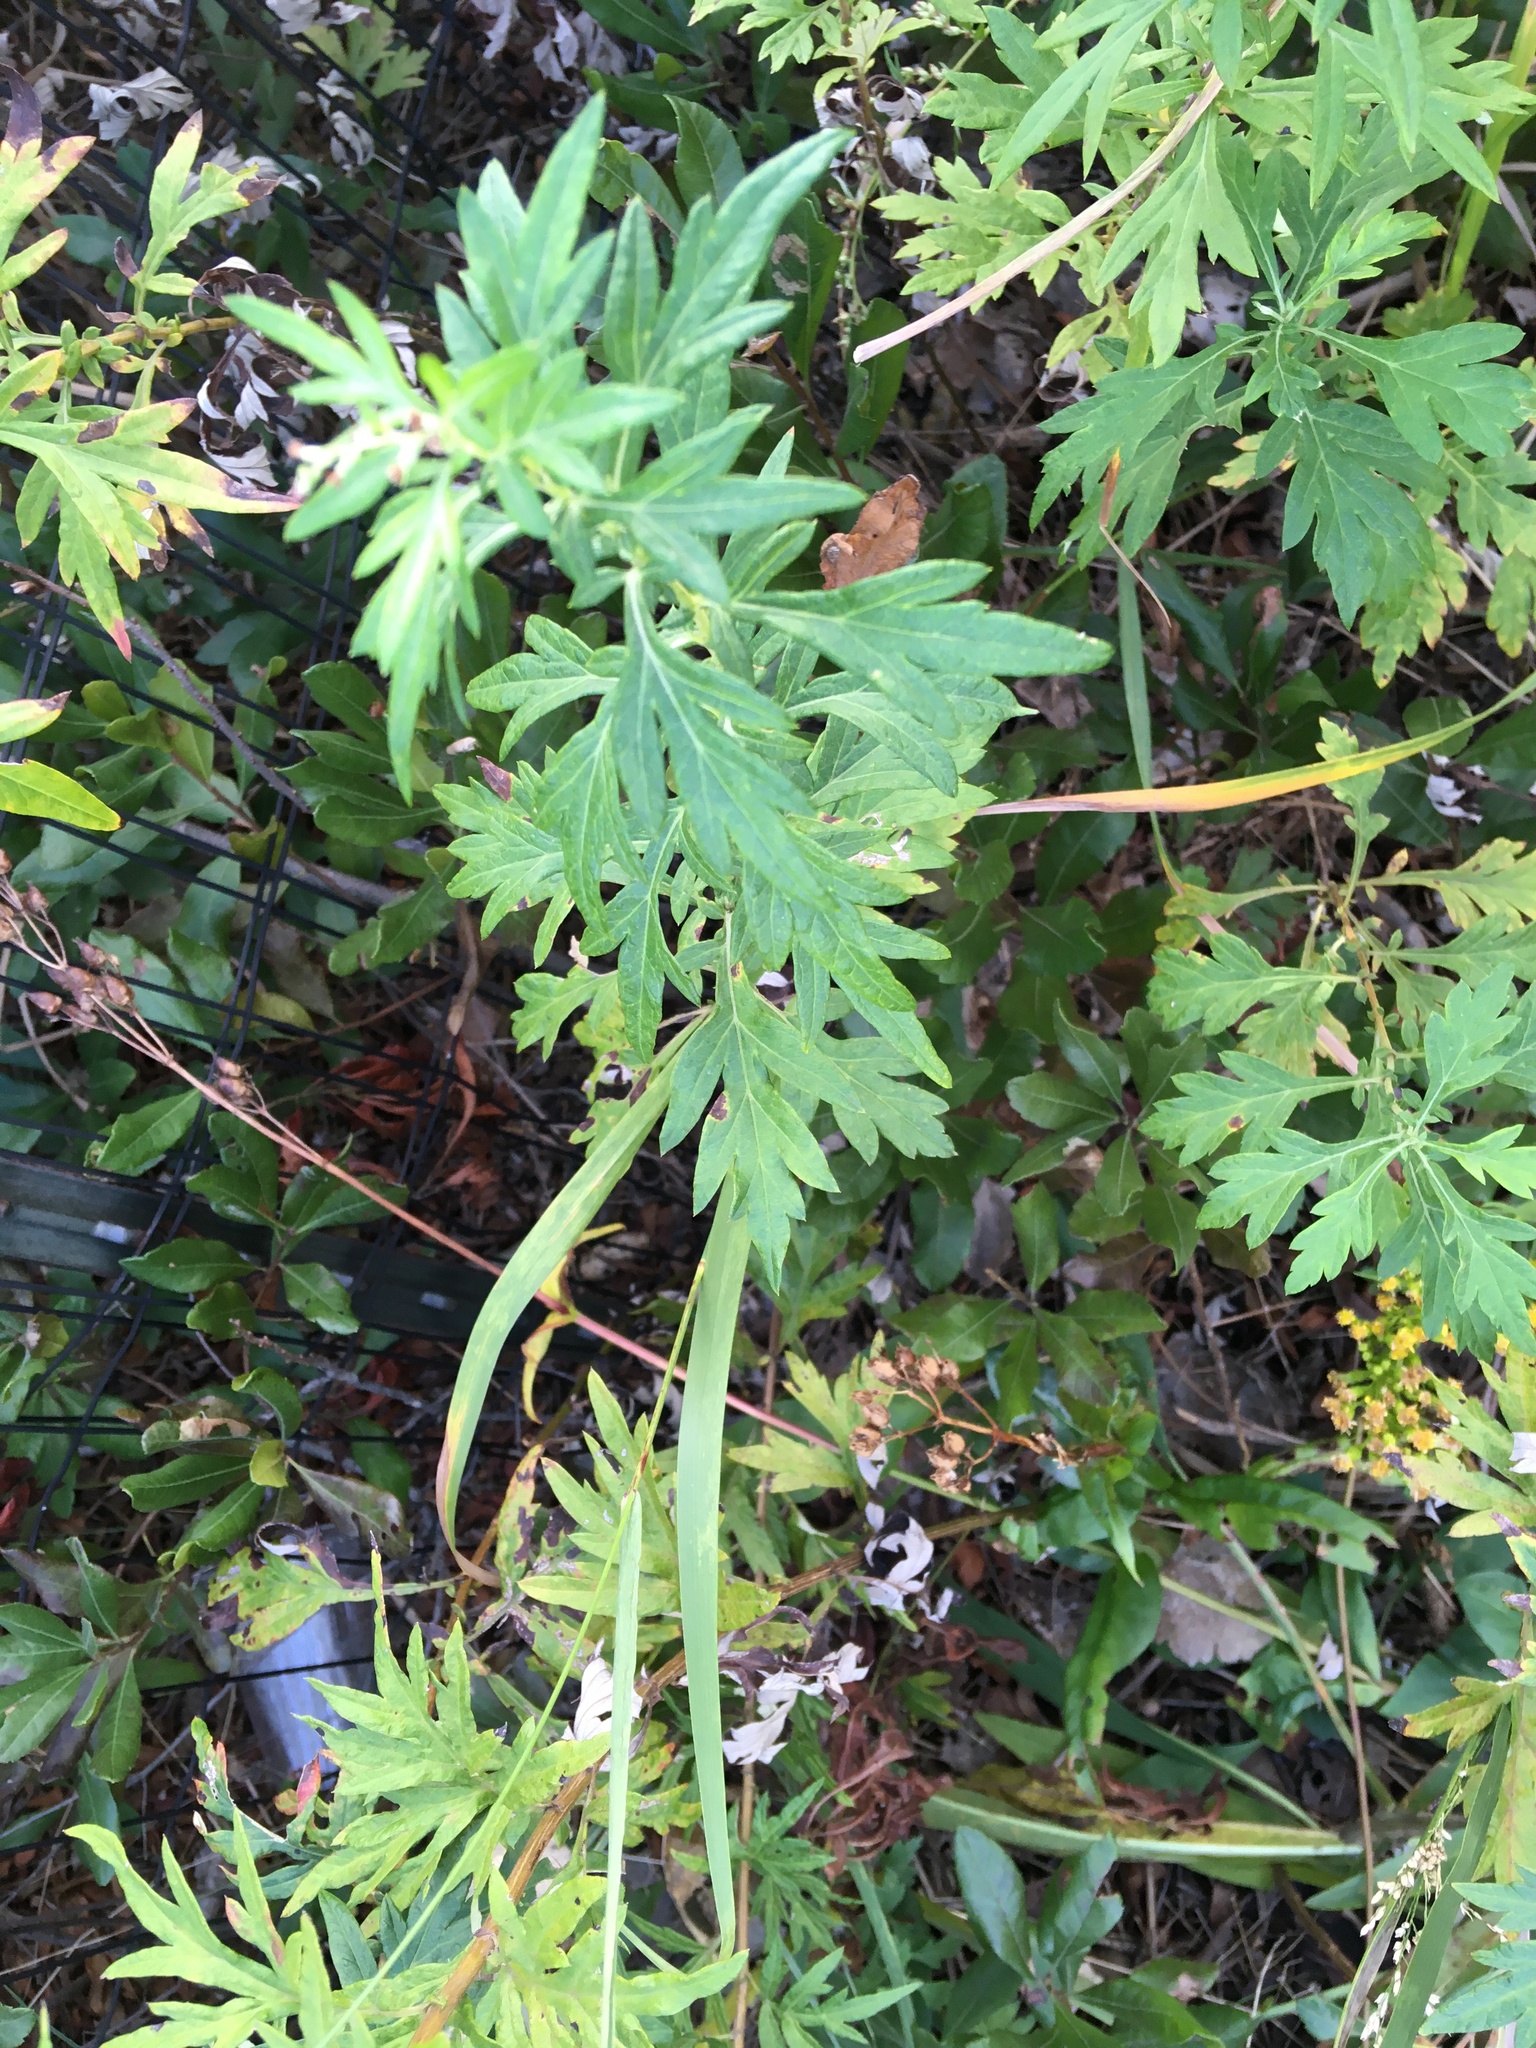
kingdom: Plantae
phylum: Tracheophyta
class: Magnoliopsida
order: Asterales
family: Asteraceae
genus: Artemisia
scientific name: Artemisia vulgaris
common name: Mugwort
